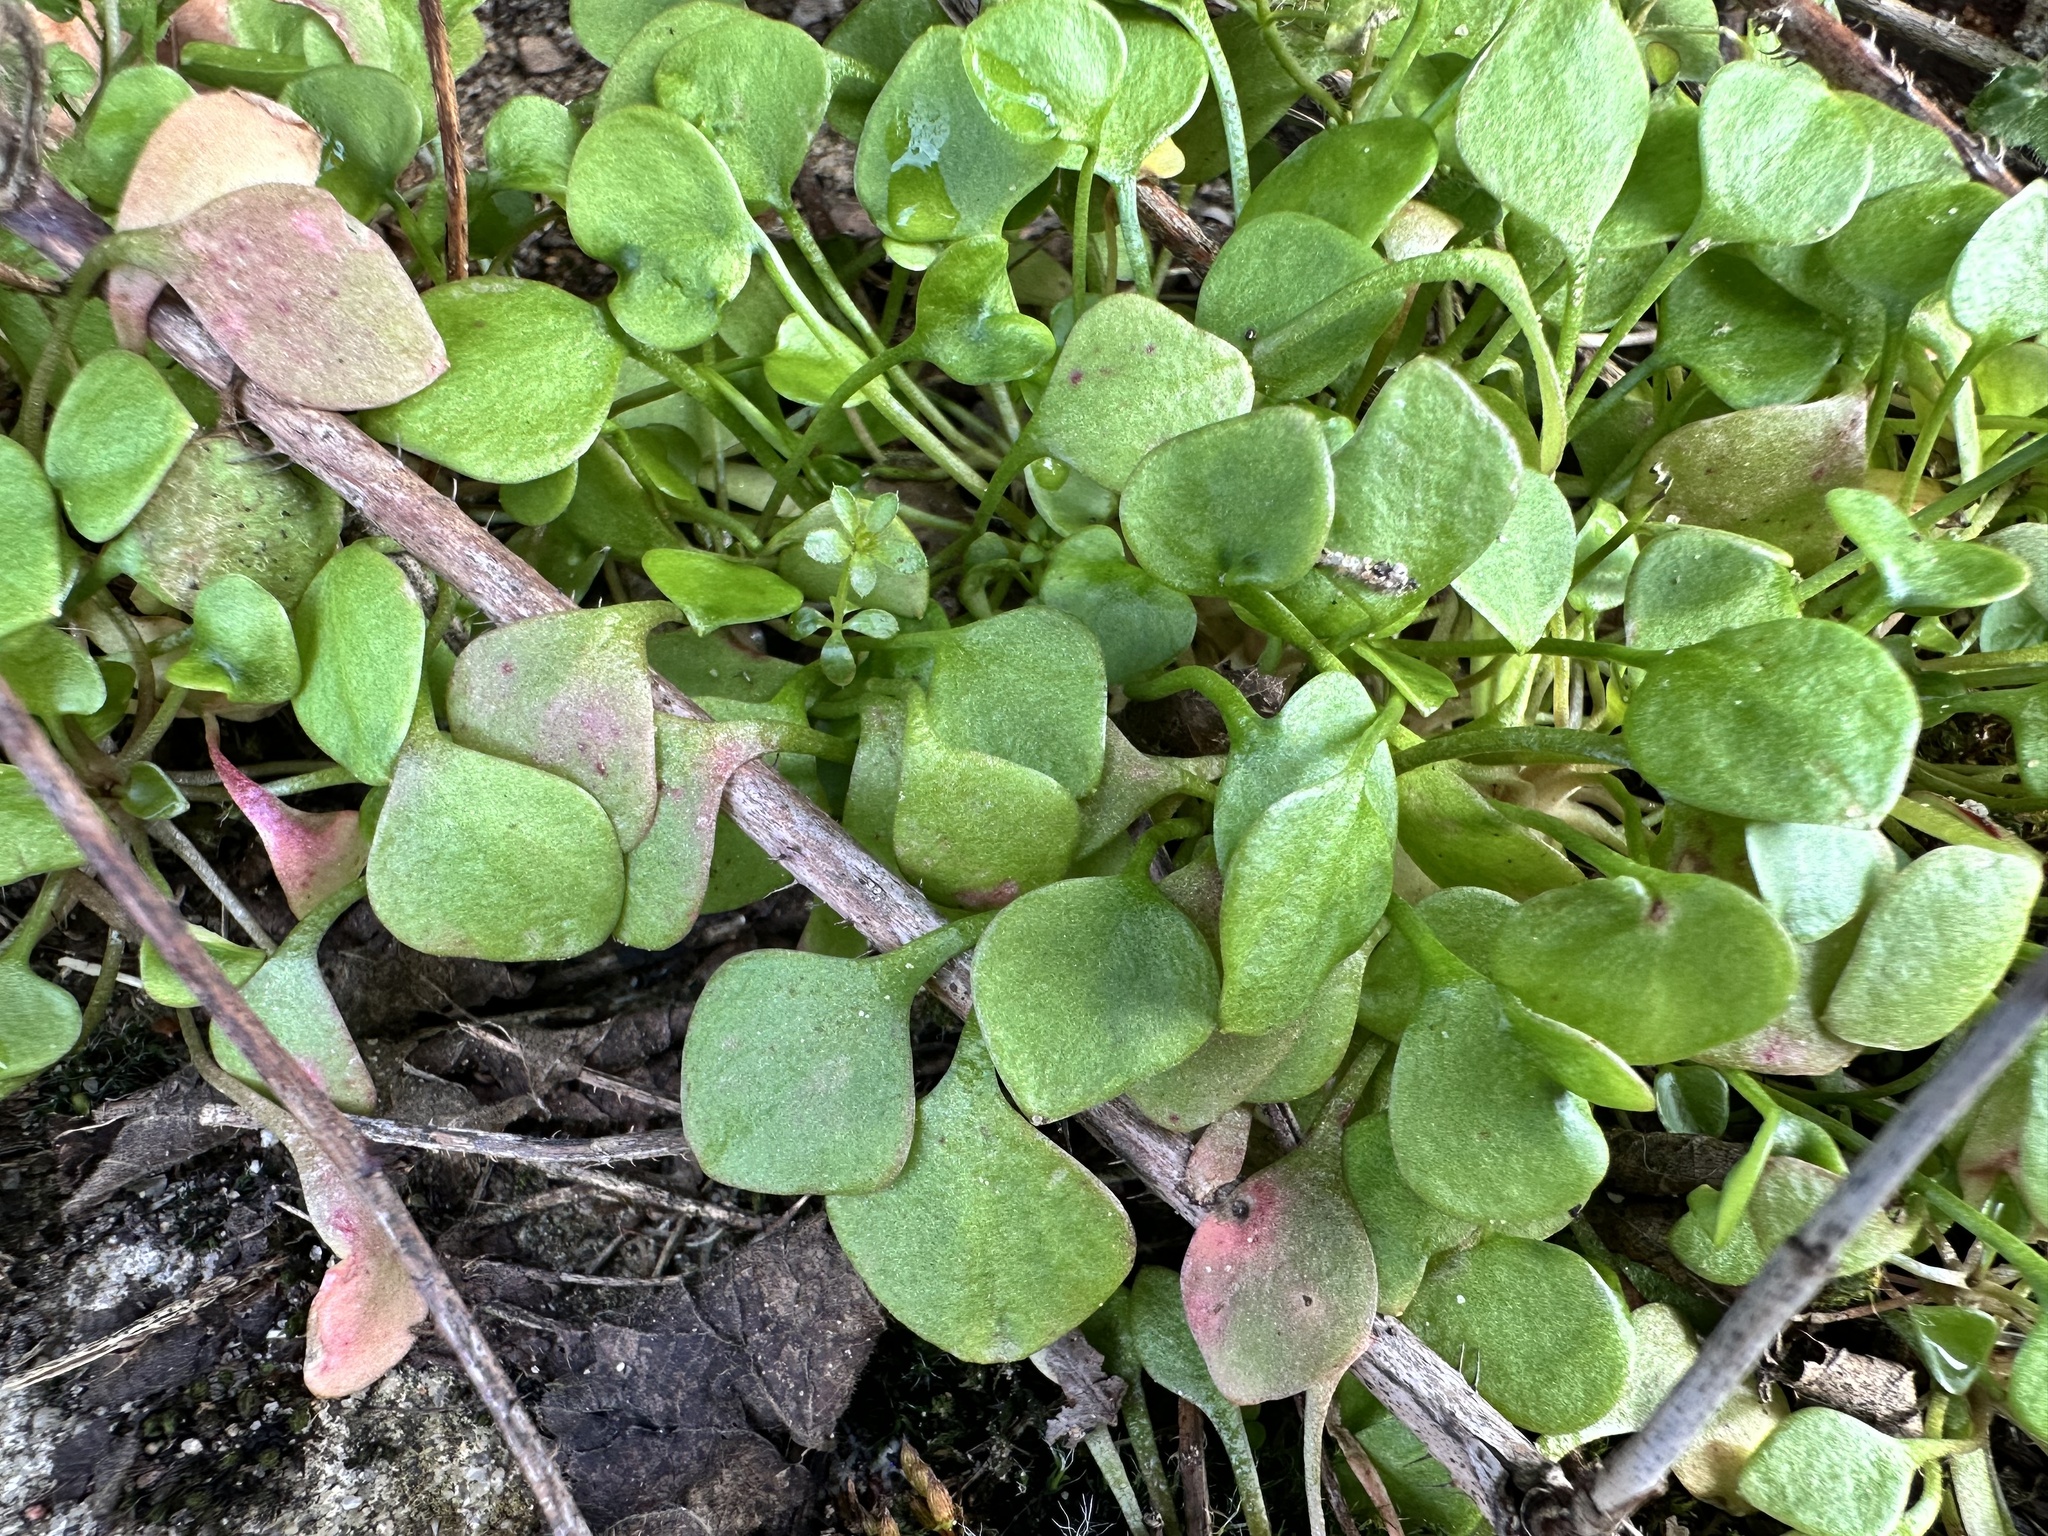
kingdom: Plantae
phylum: Tracheophyta
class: Magnoliopsida
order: Caryophyllales
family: Montiaceae
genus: Claytonia
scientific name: Claytonia perfoliata
